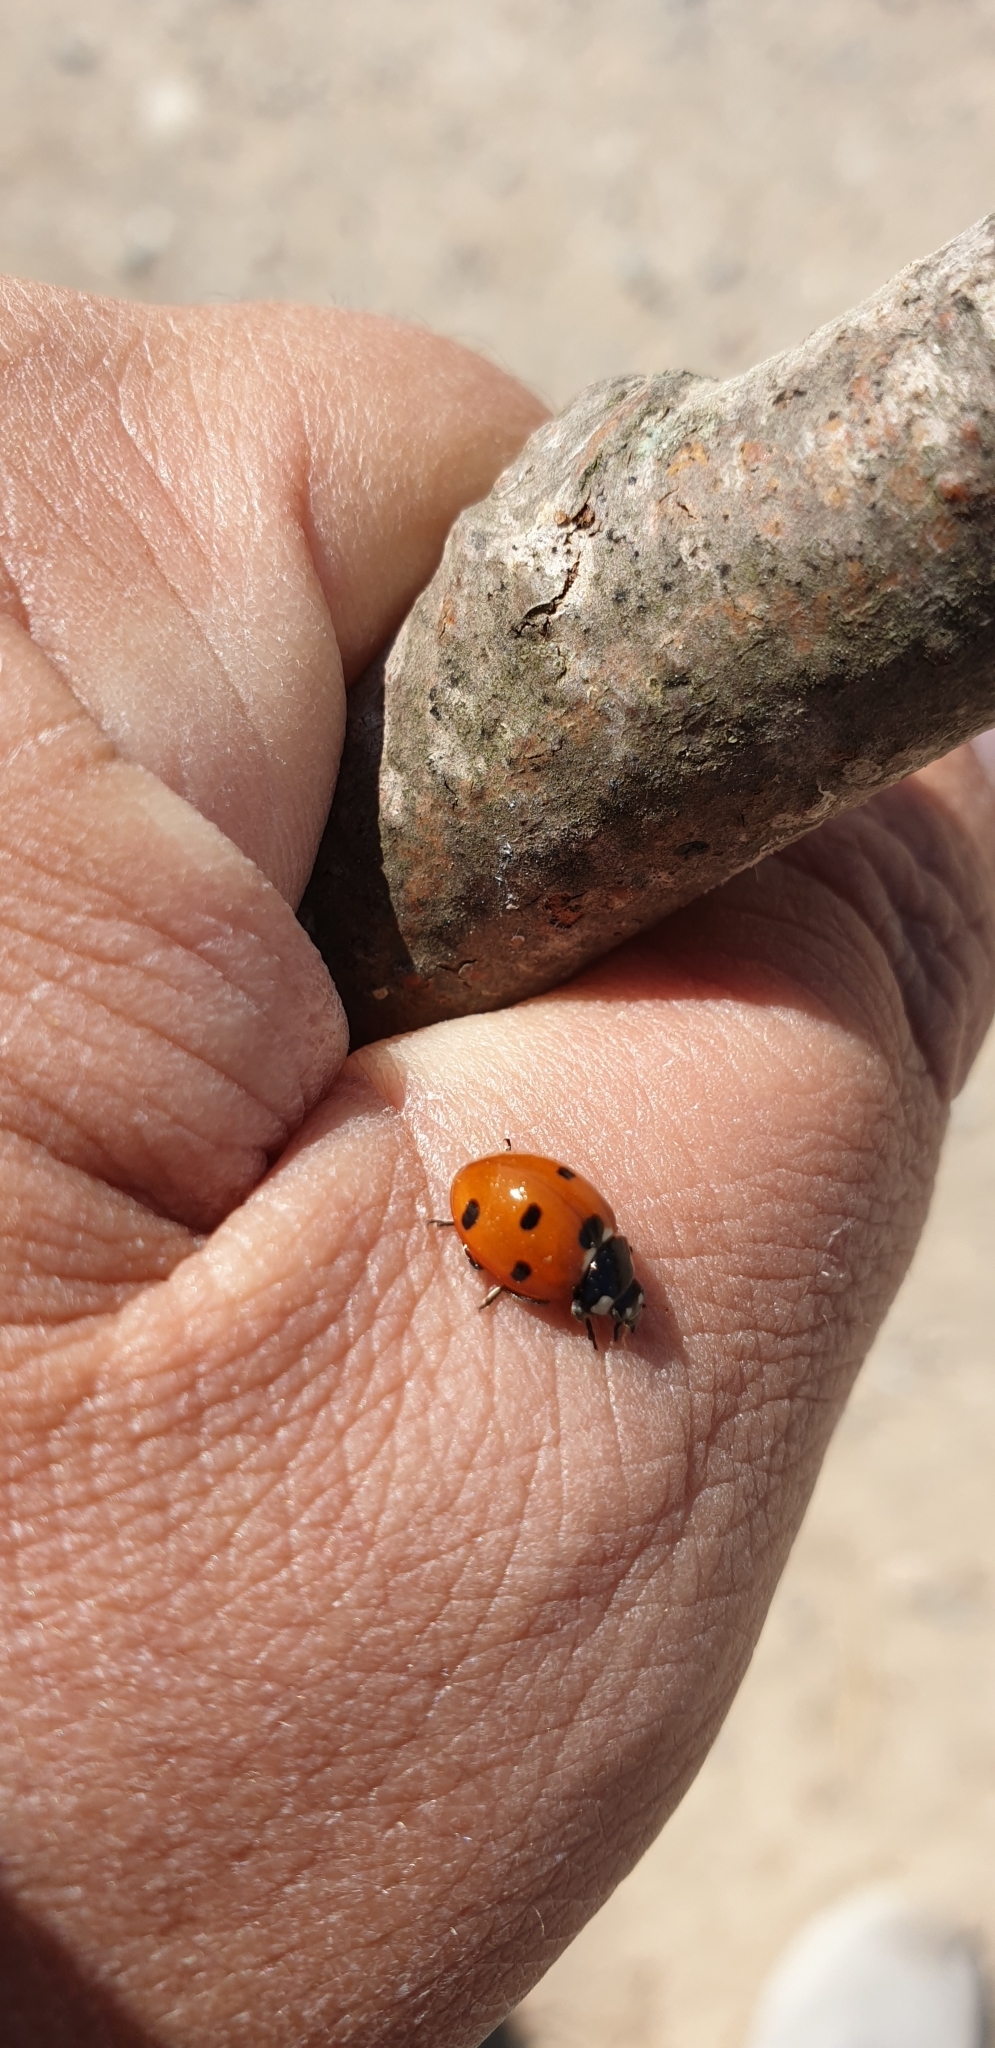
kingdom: Animalia
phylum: Arthropoda
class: Insecta
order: Coleoptera
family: Coccinellidae
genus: Coccinella
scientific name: Coccinella septempunctata
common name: Sevenspotted lady beetle
